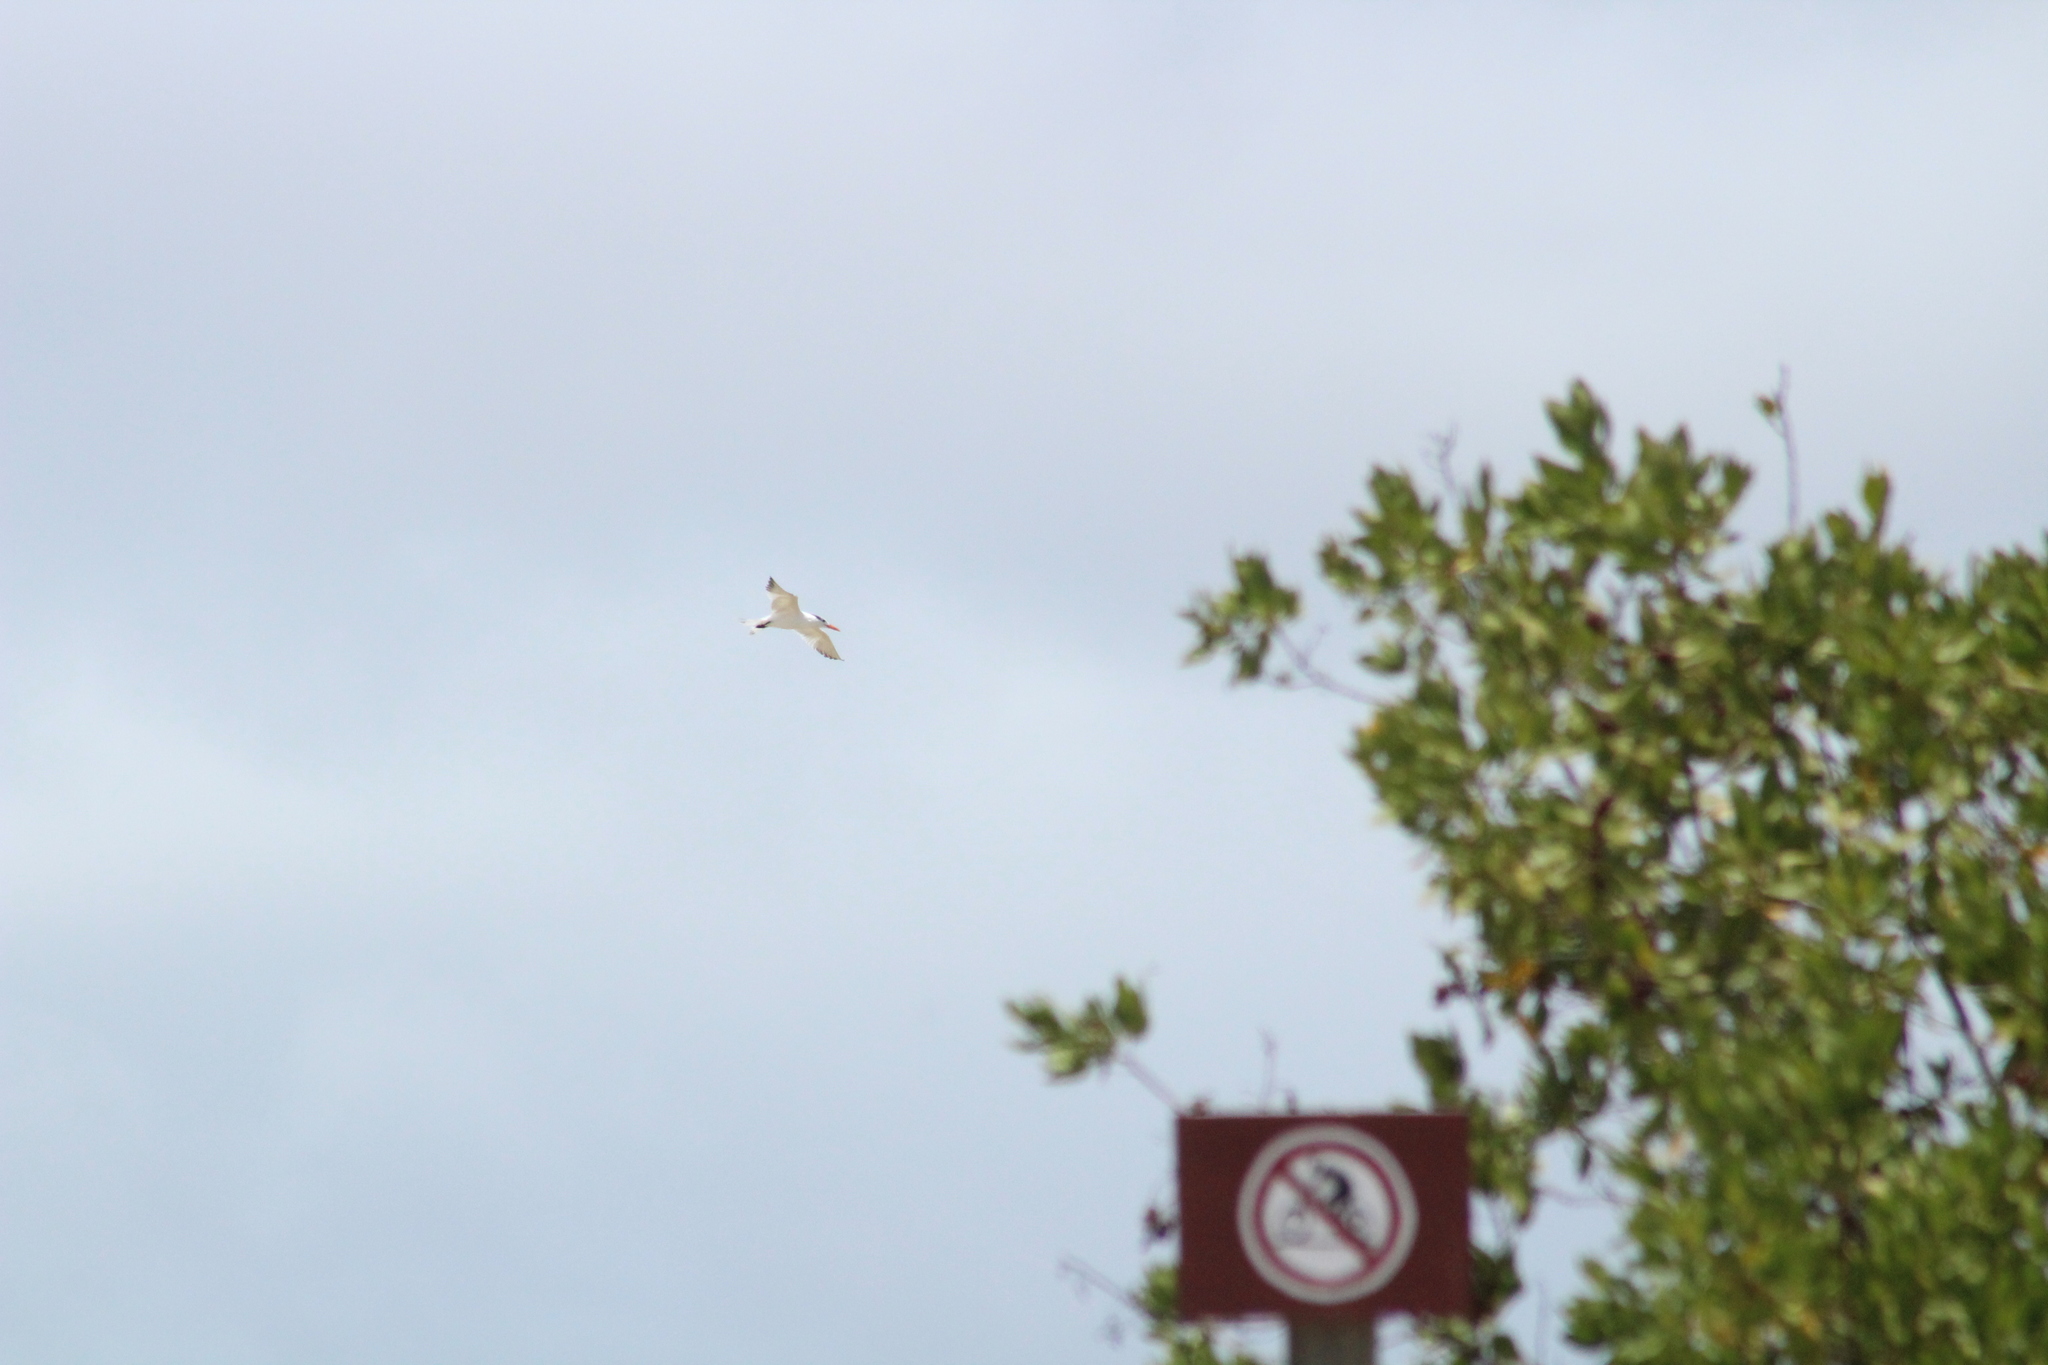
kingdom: Animalia
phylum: Chordata
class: Aves
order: Charadriiformes
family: Laridae
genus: Thalasseus
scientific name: Thalasseus maximus
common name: Royal tern
